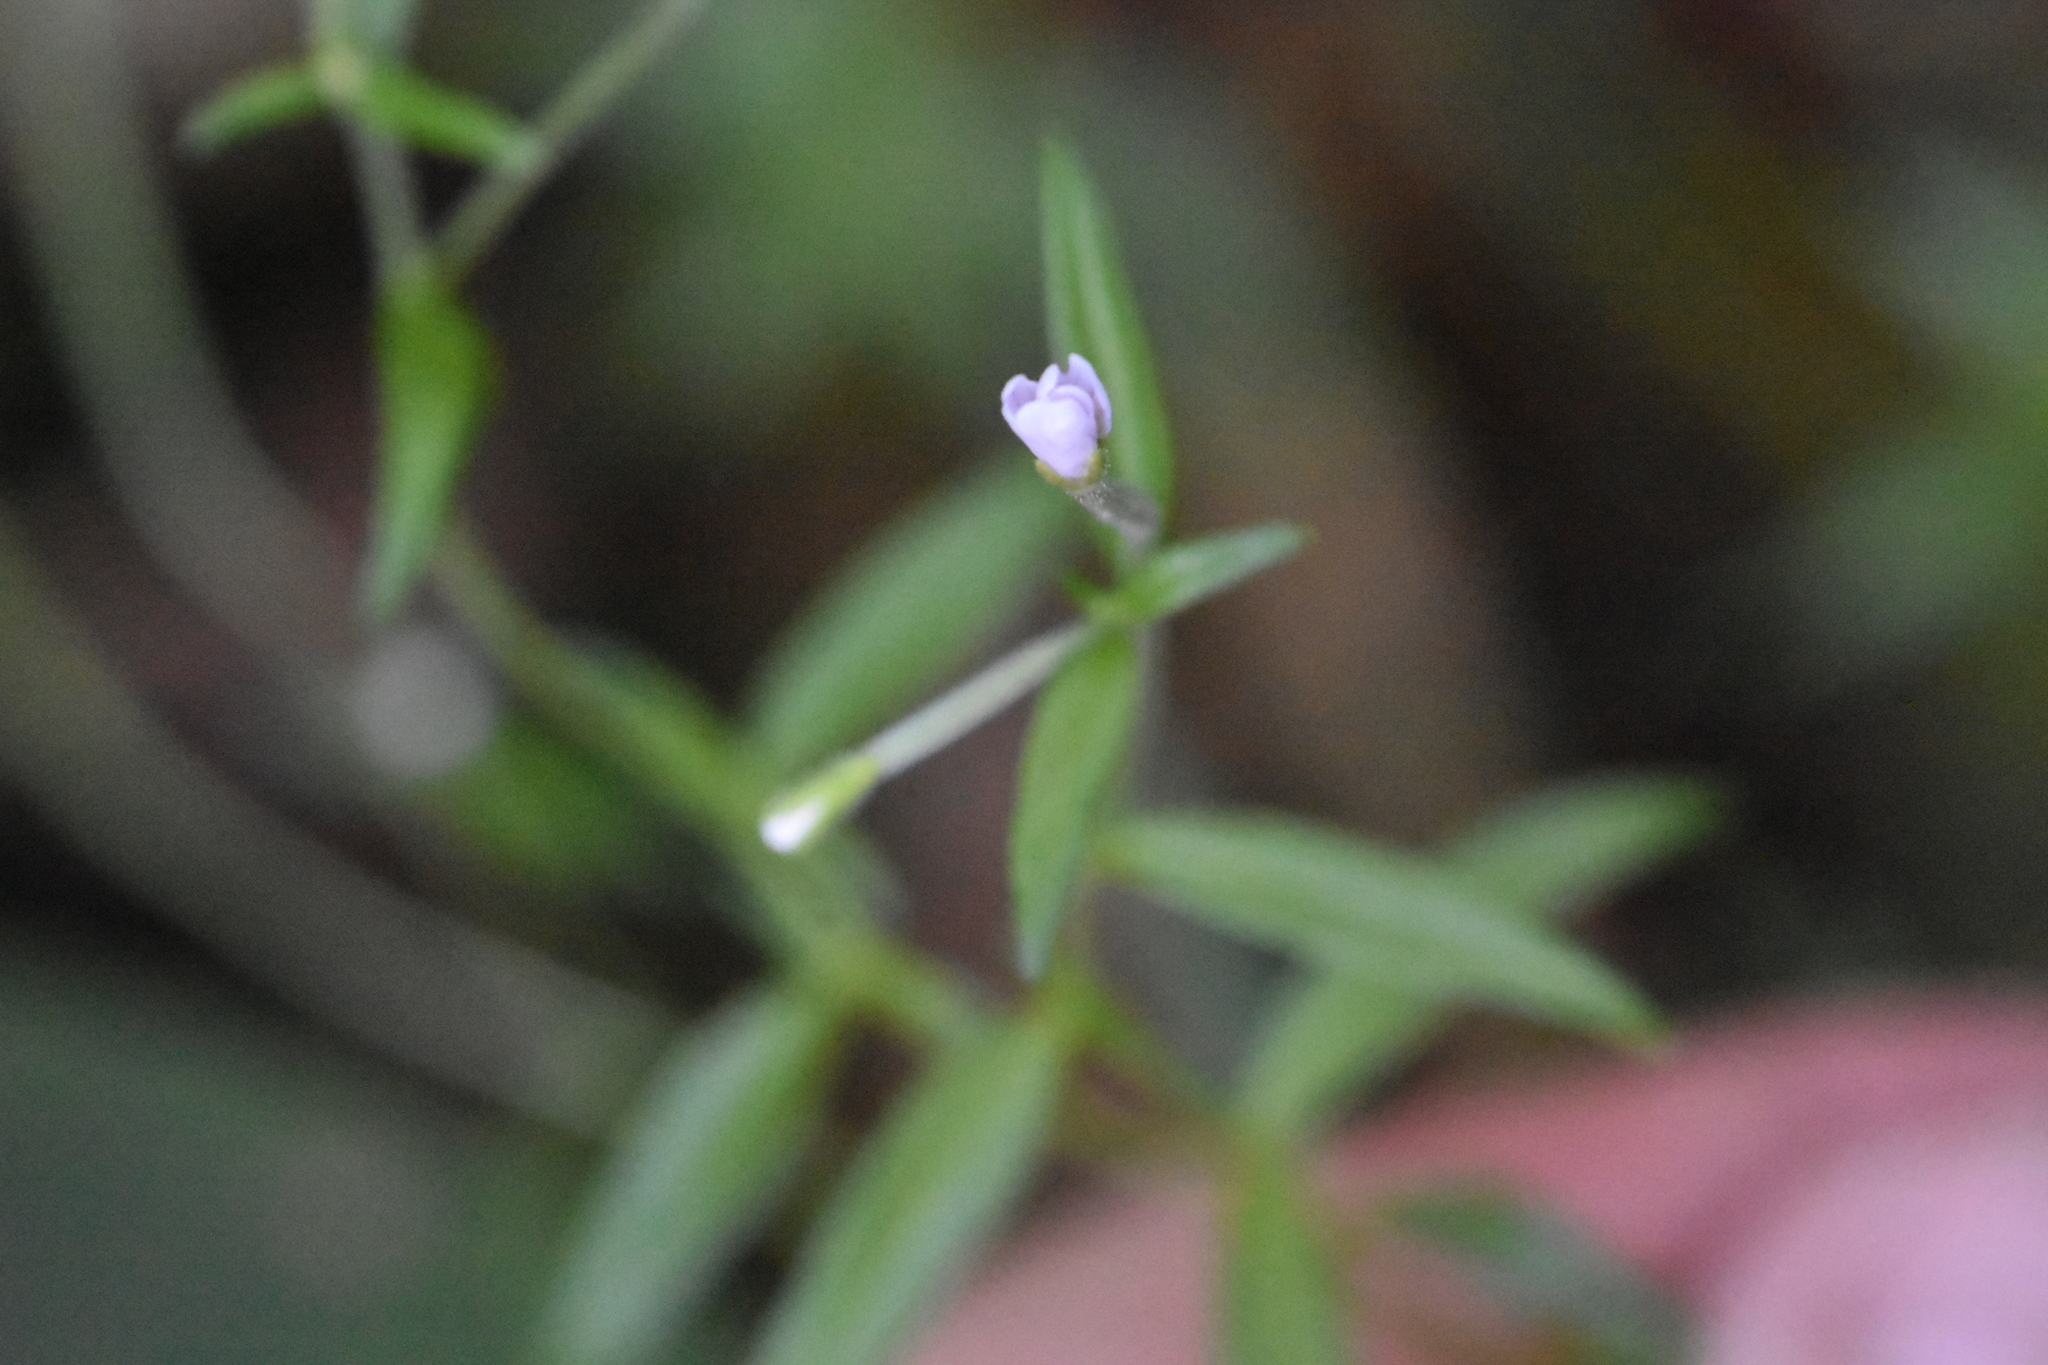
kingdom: Plantae
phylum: Tracheophyta
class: Magnoliopsida
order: Myrtales
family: Onagraceae
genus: Epilobium
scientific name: Epilobium palustre
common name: Marsh willowherb
